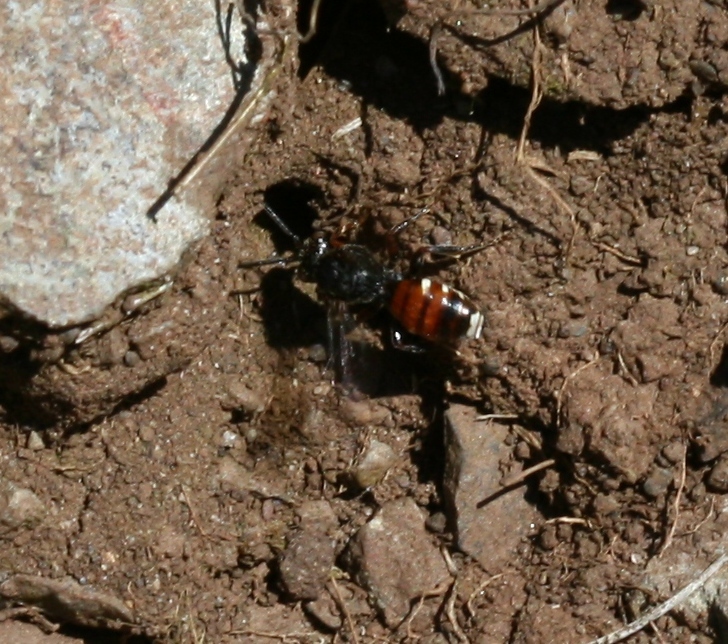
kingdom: Animalia
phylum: Arthropoda
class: Insecta
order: Hymenoptera
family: Apidae
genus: Nomada
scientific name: Nomada obtusifrons
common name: Flat-ridged nomad bee
